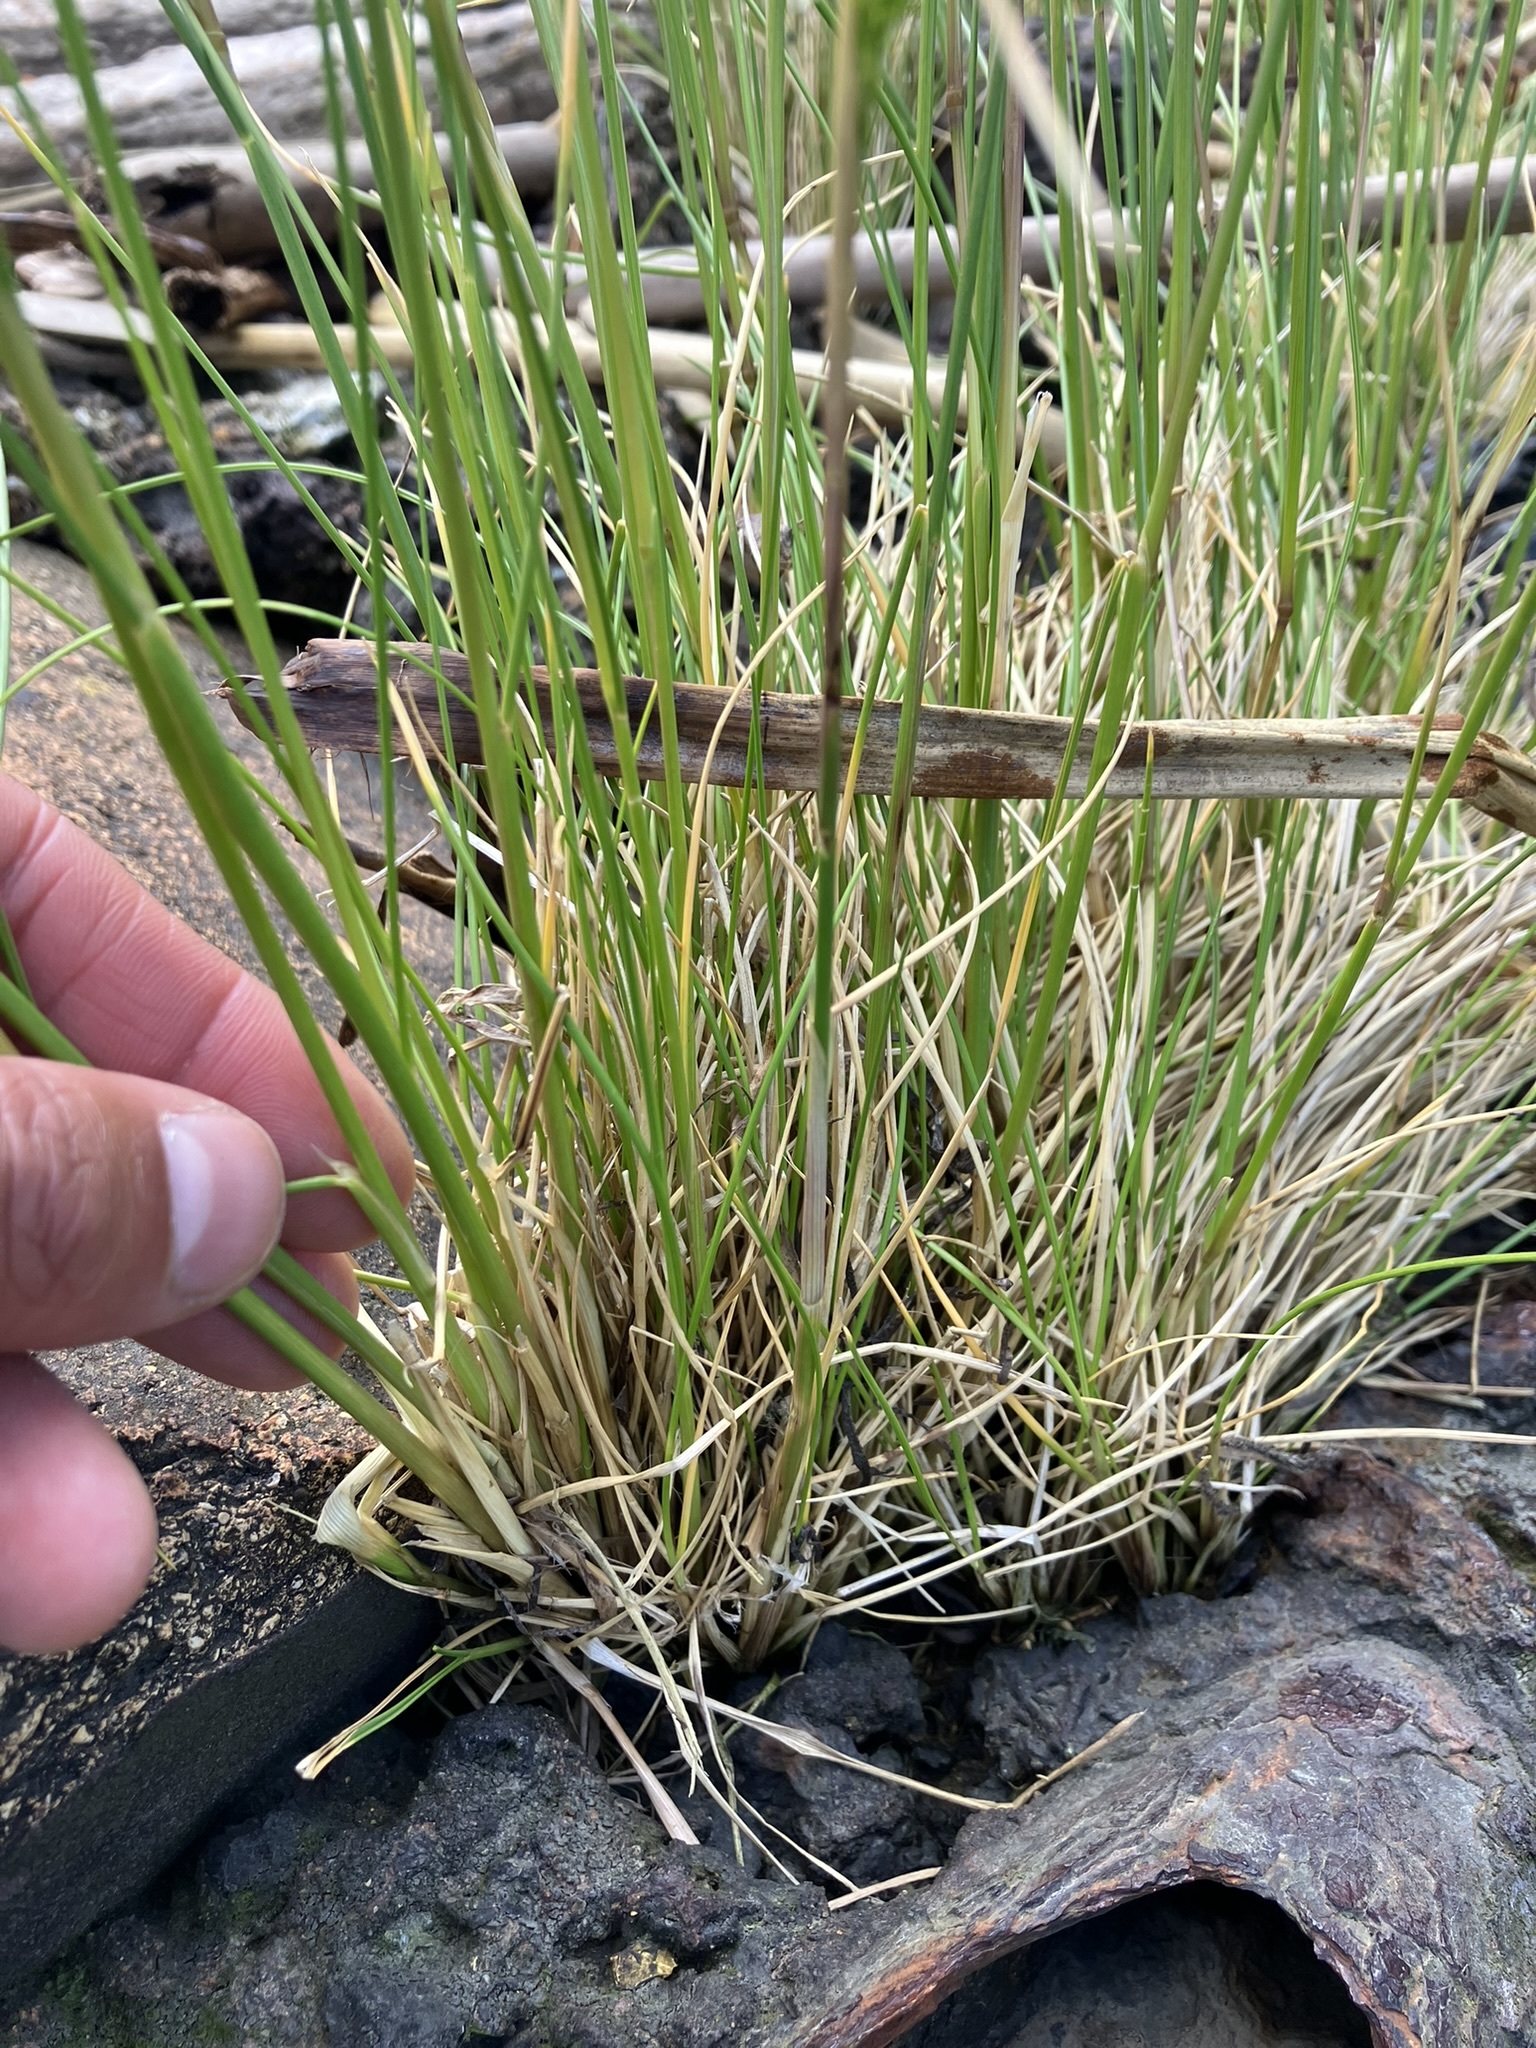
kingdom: Plantae
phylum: Tracheophyta
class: Liliopsida
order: Poales
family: Poaceae
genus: Deschampsia
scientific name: Deschampsia cespitosa
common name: Tufted hair-grass
